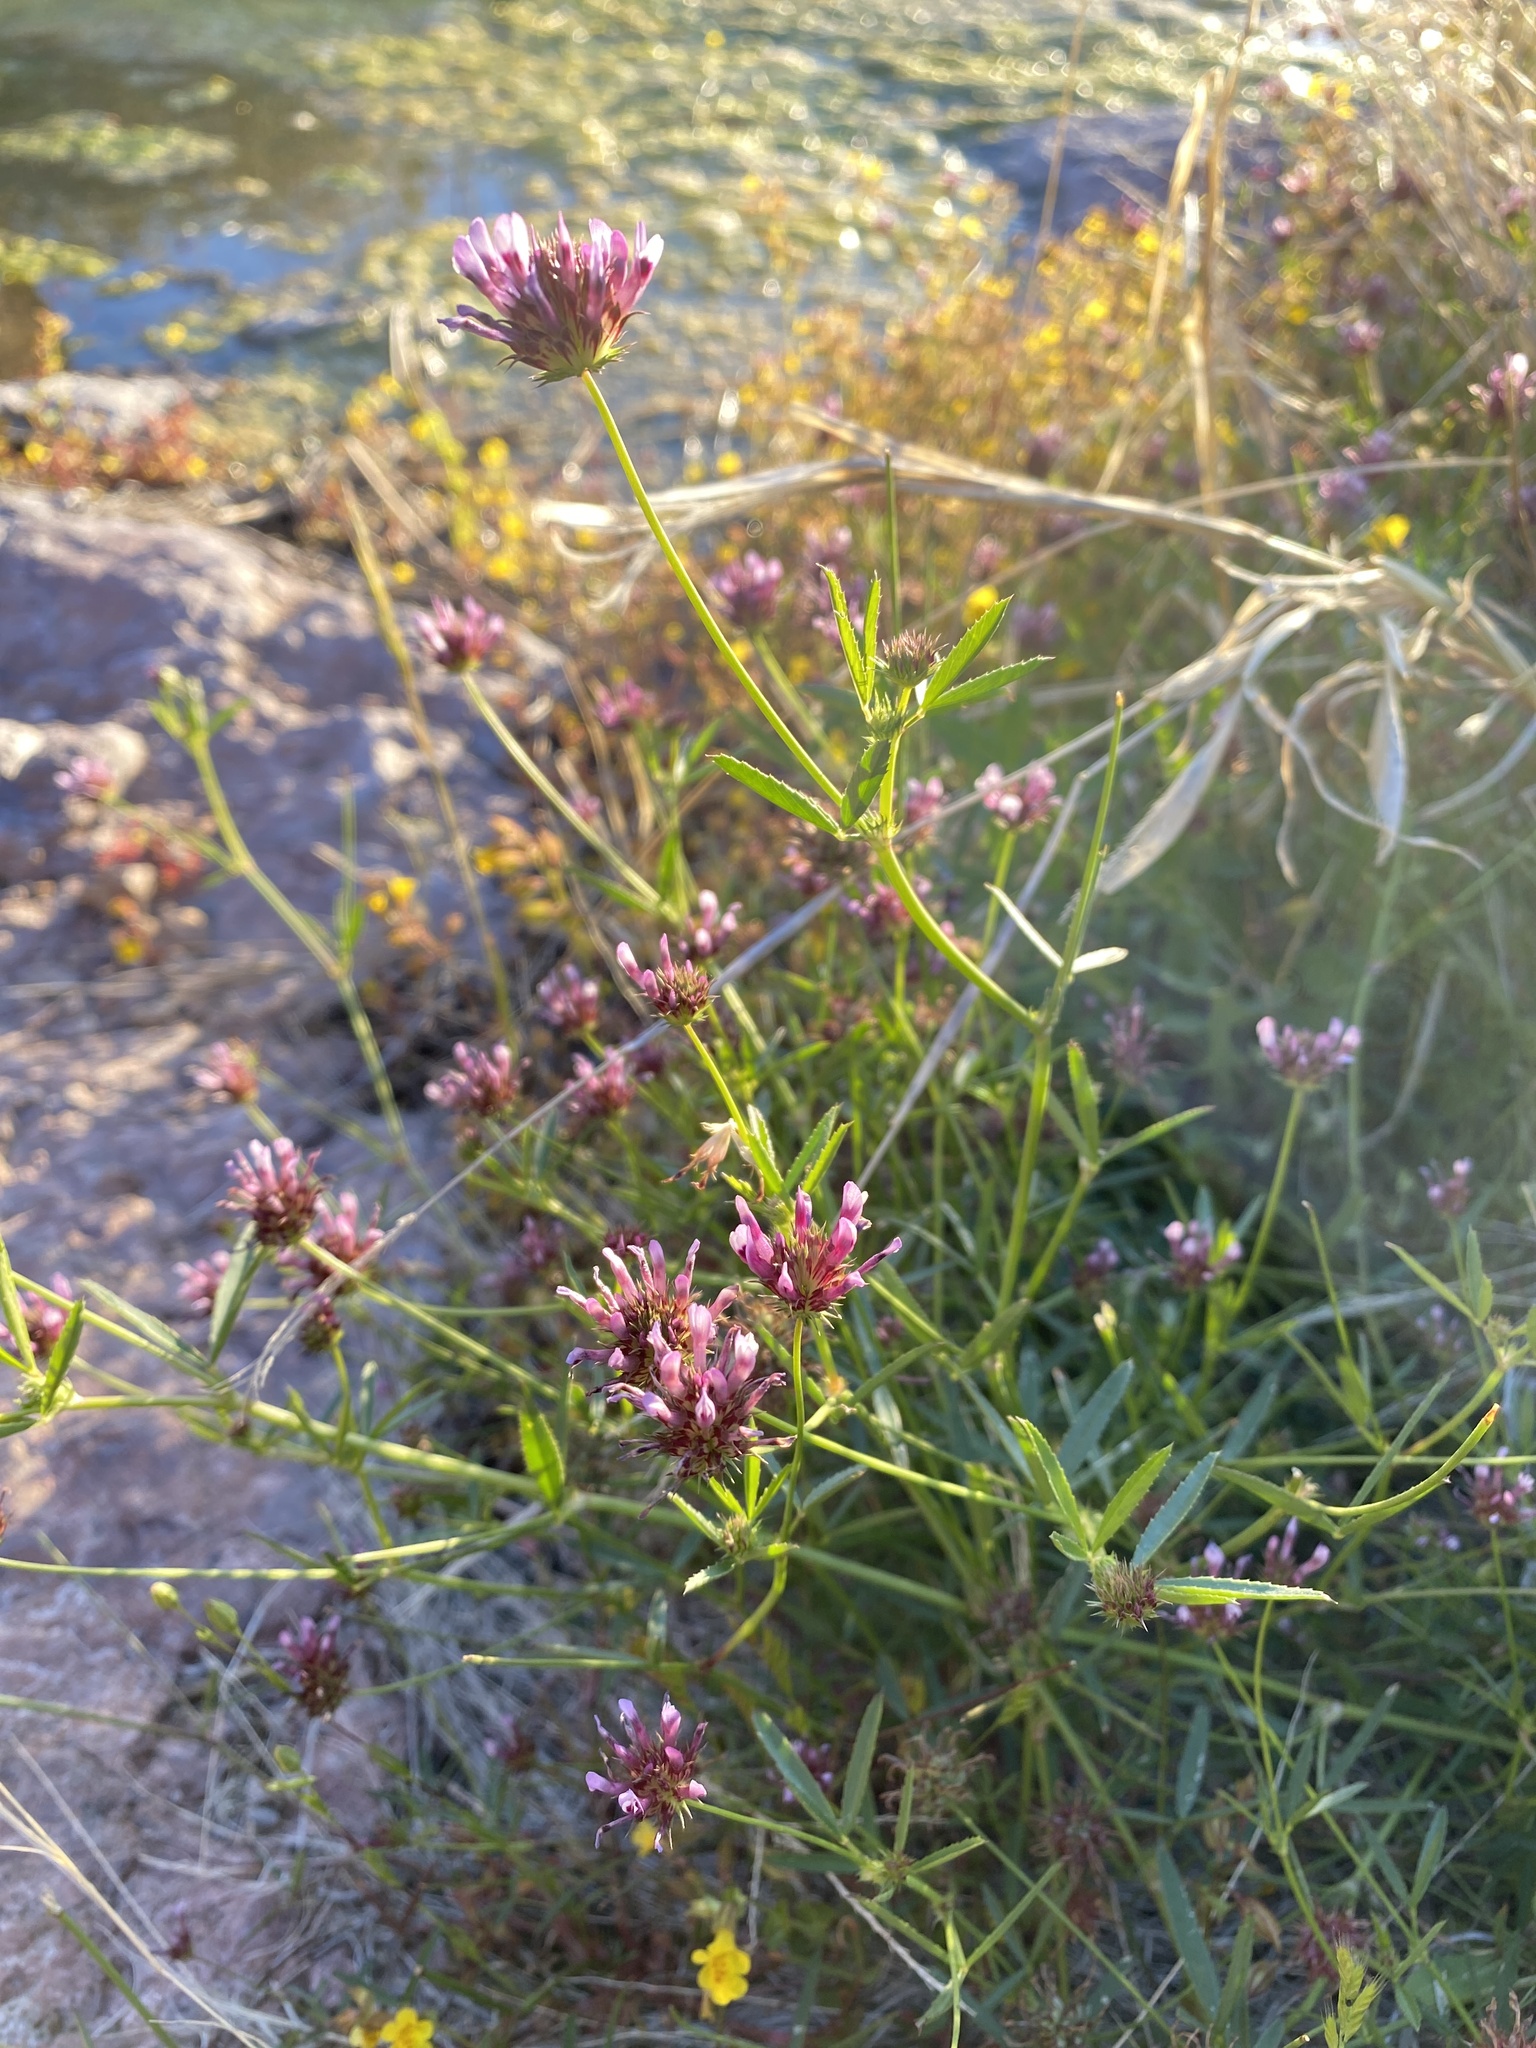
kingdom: Plantae
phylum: Tracheophyta
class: Magnoliopsida
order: Fabales
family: Fabaceae
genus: Trifolium
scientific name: Trifolium willdenovii
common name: Tomcat clover
